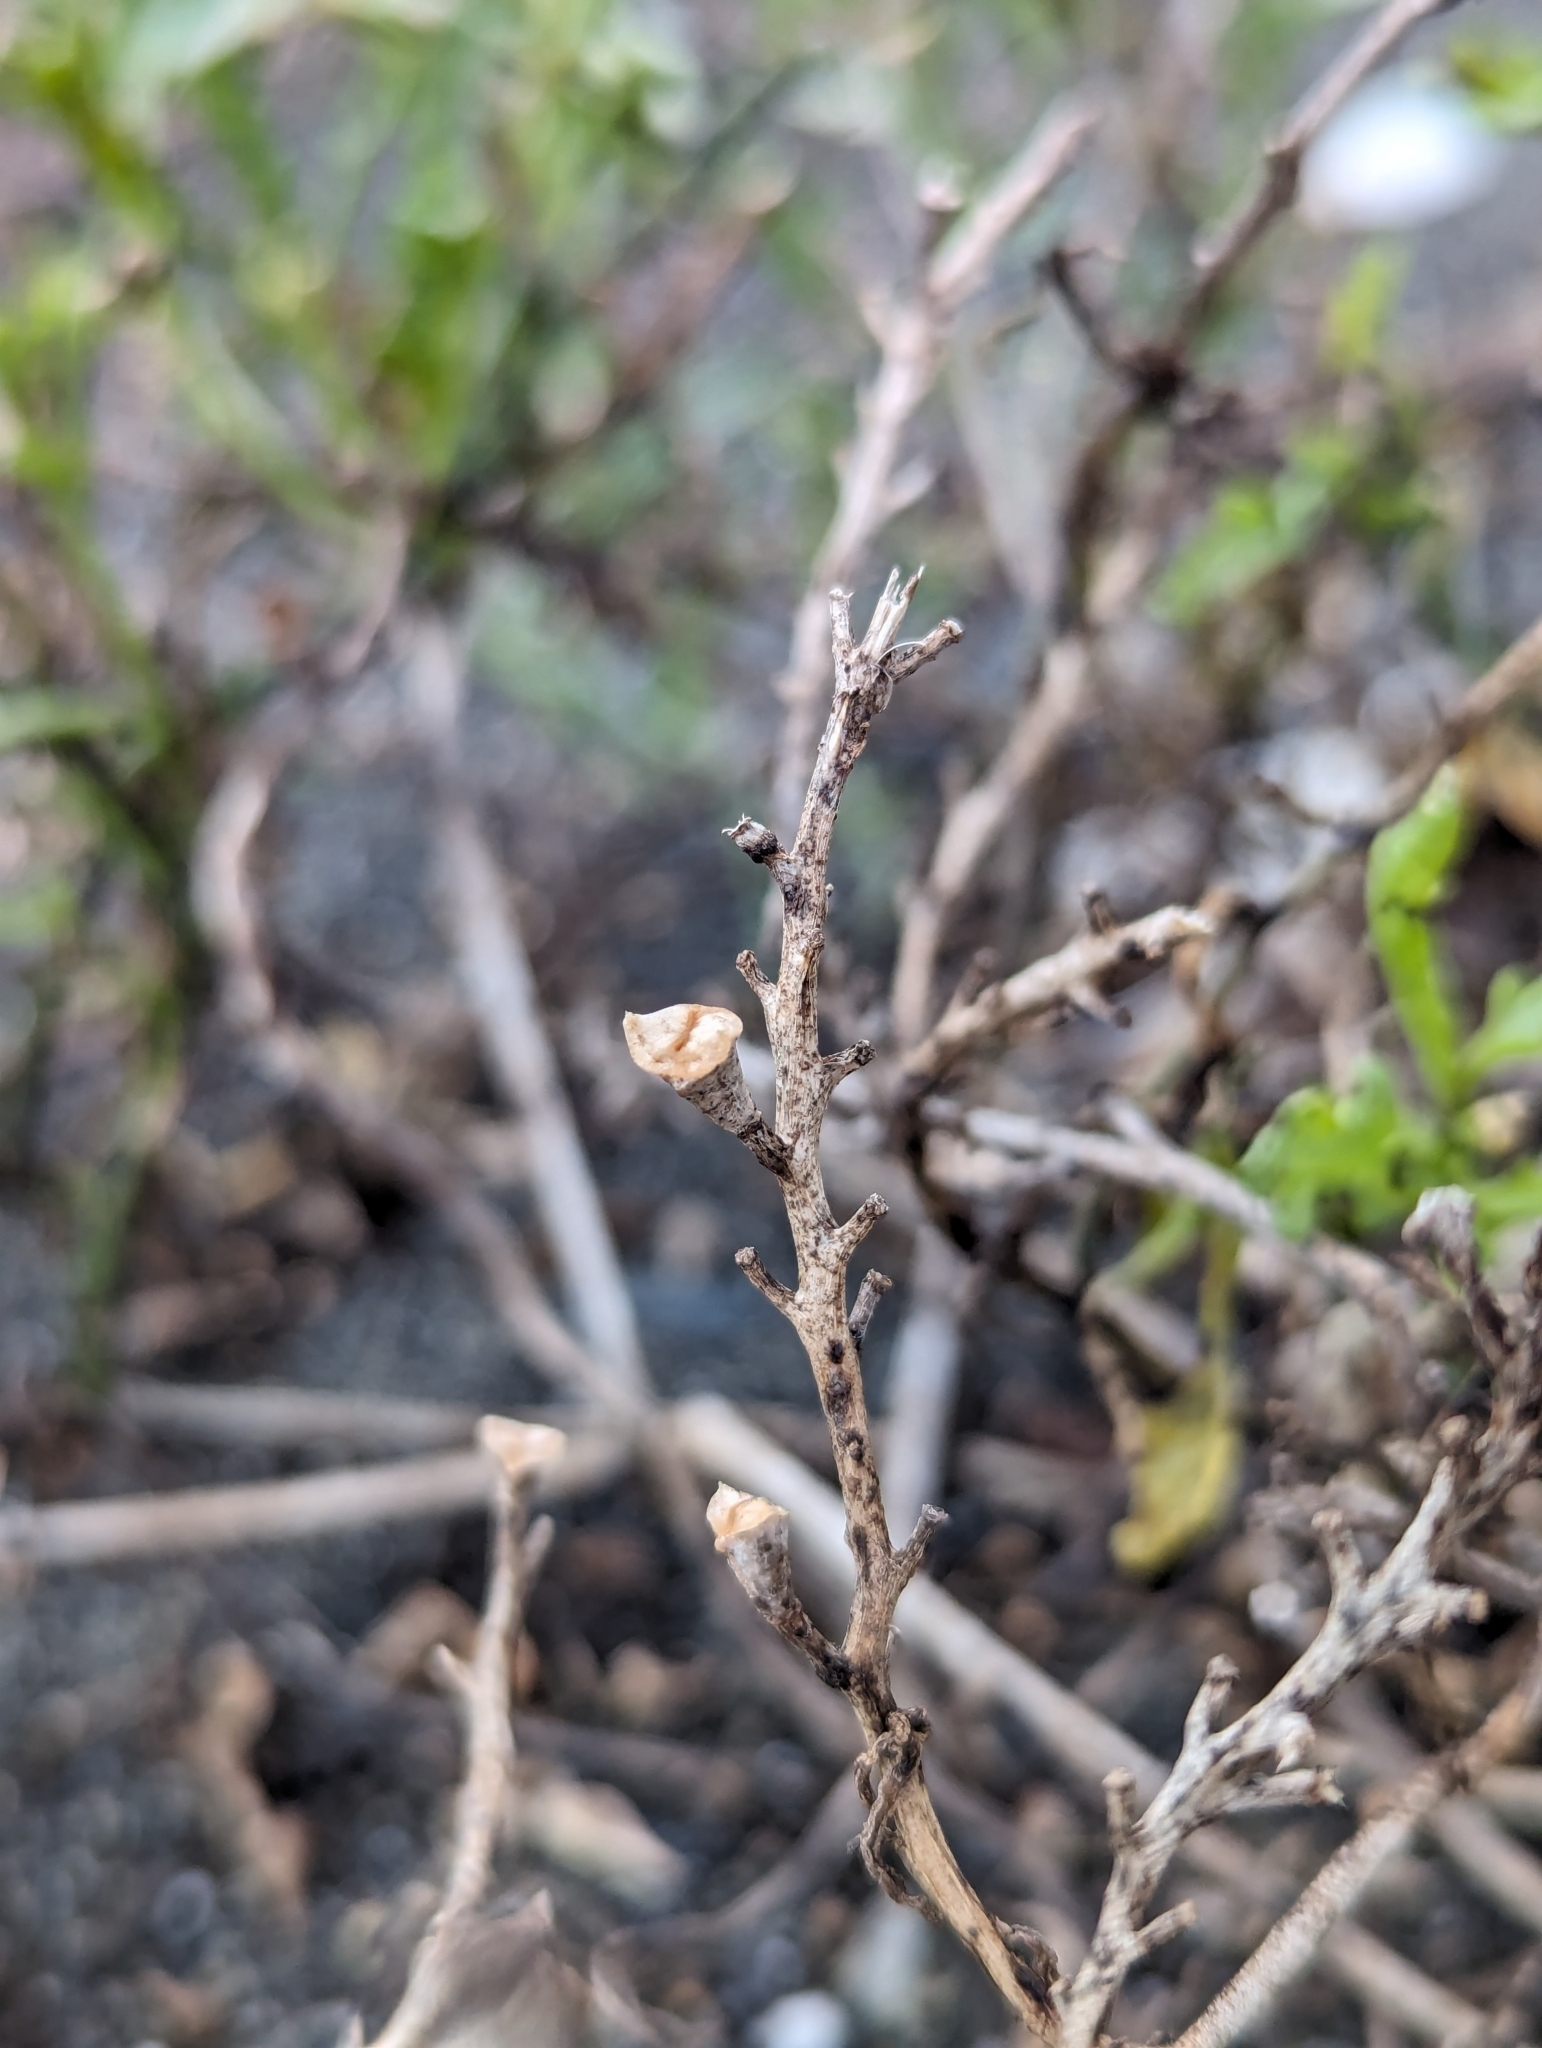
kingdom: Plantae
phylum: Tracheophyta
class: Magnoliopsida
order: Brassicales
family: Brassicaceae
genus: Cakile
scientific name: Cakile maritima
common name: Sea rocket
